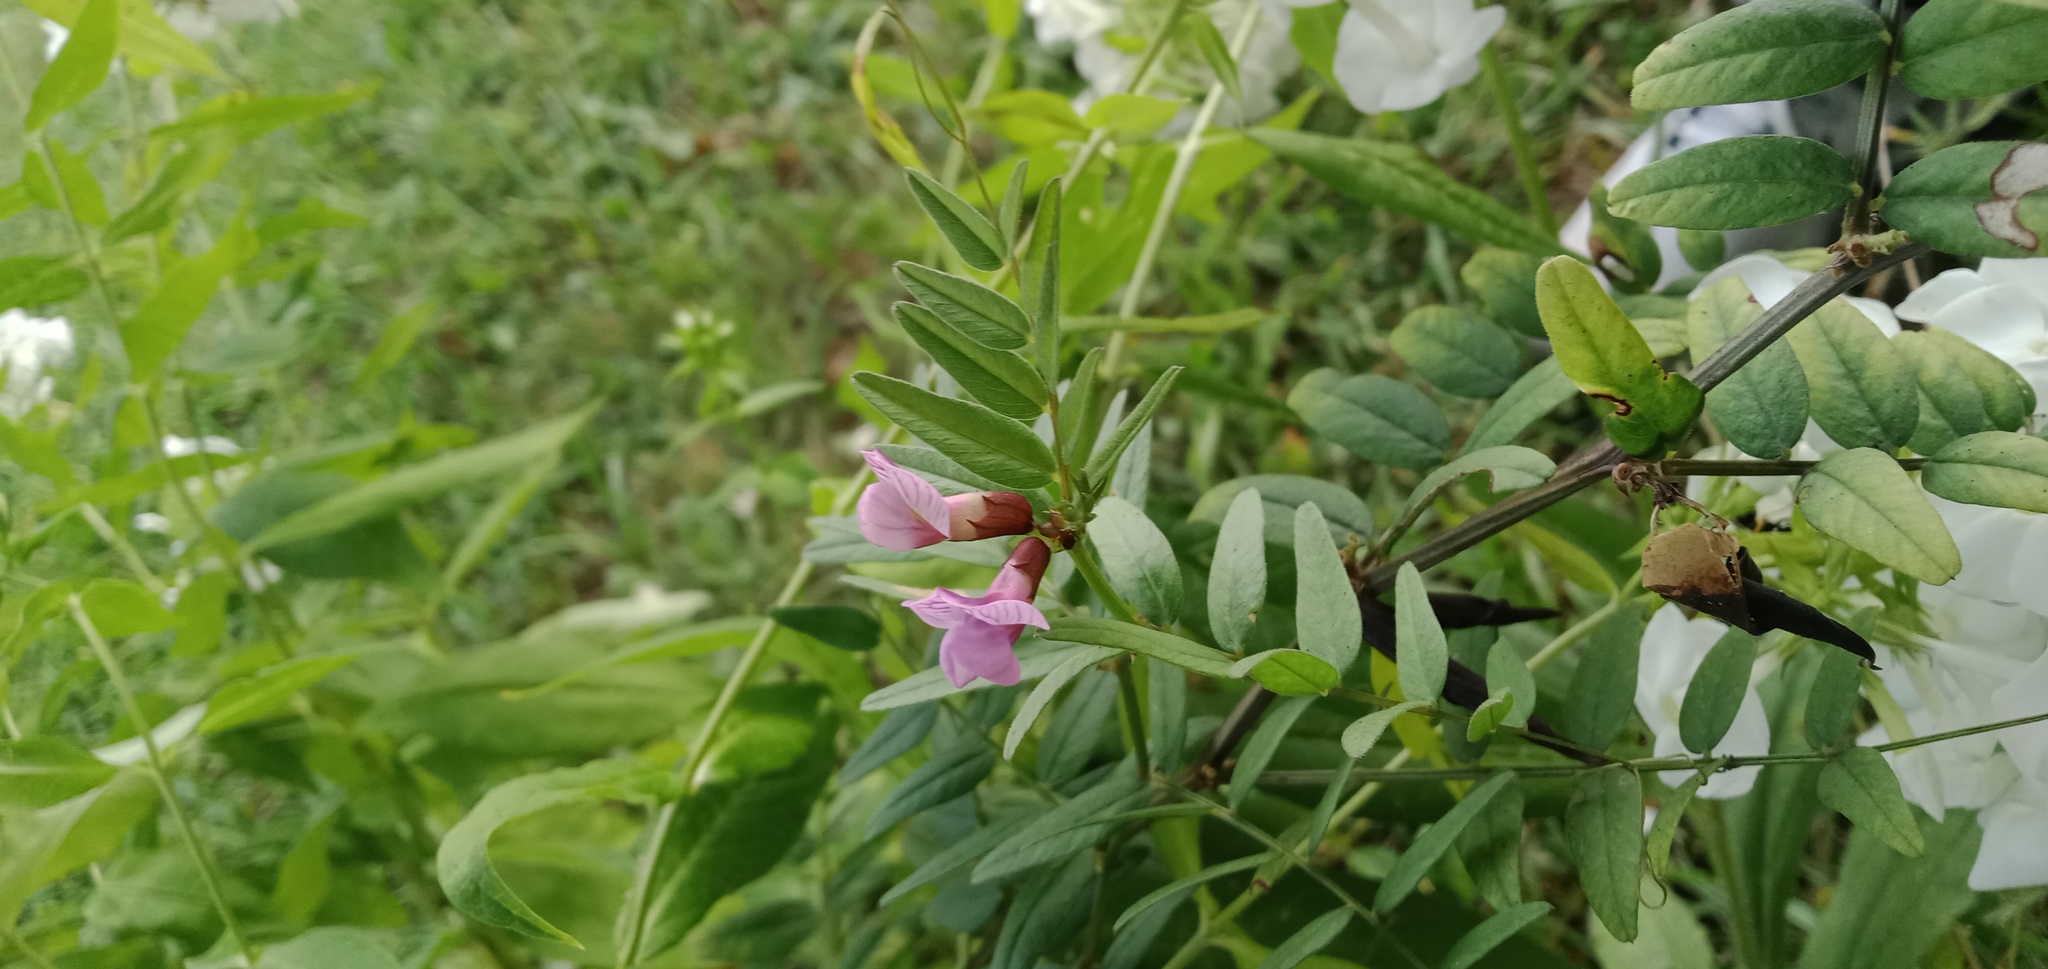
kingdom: Plantae
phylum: Tracheophyta
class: Magnoliopsida
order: Fabales
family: Fabaceae
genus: Vicia
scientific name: Vicia sepium
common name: Bush vetch
